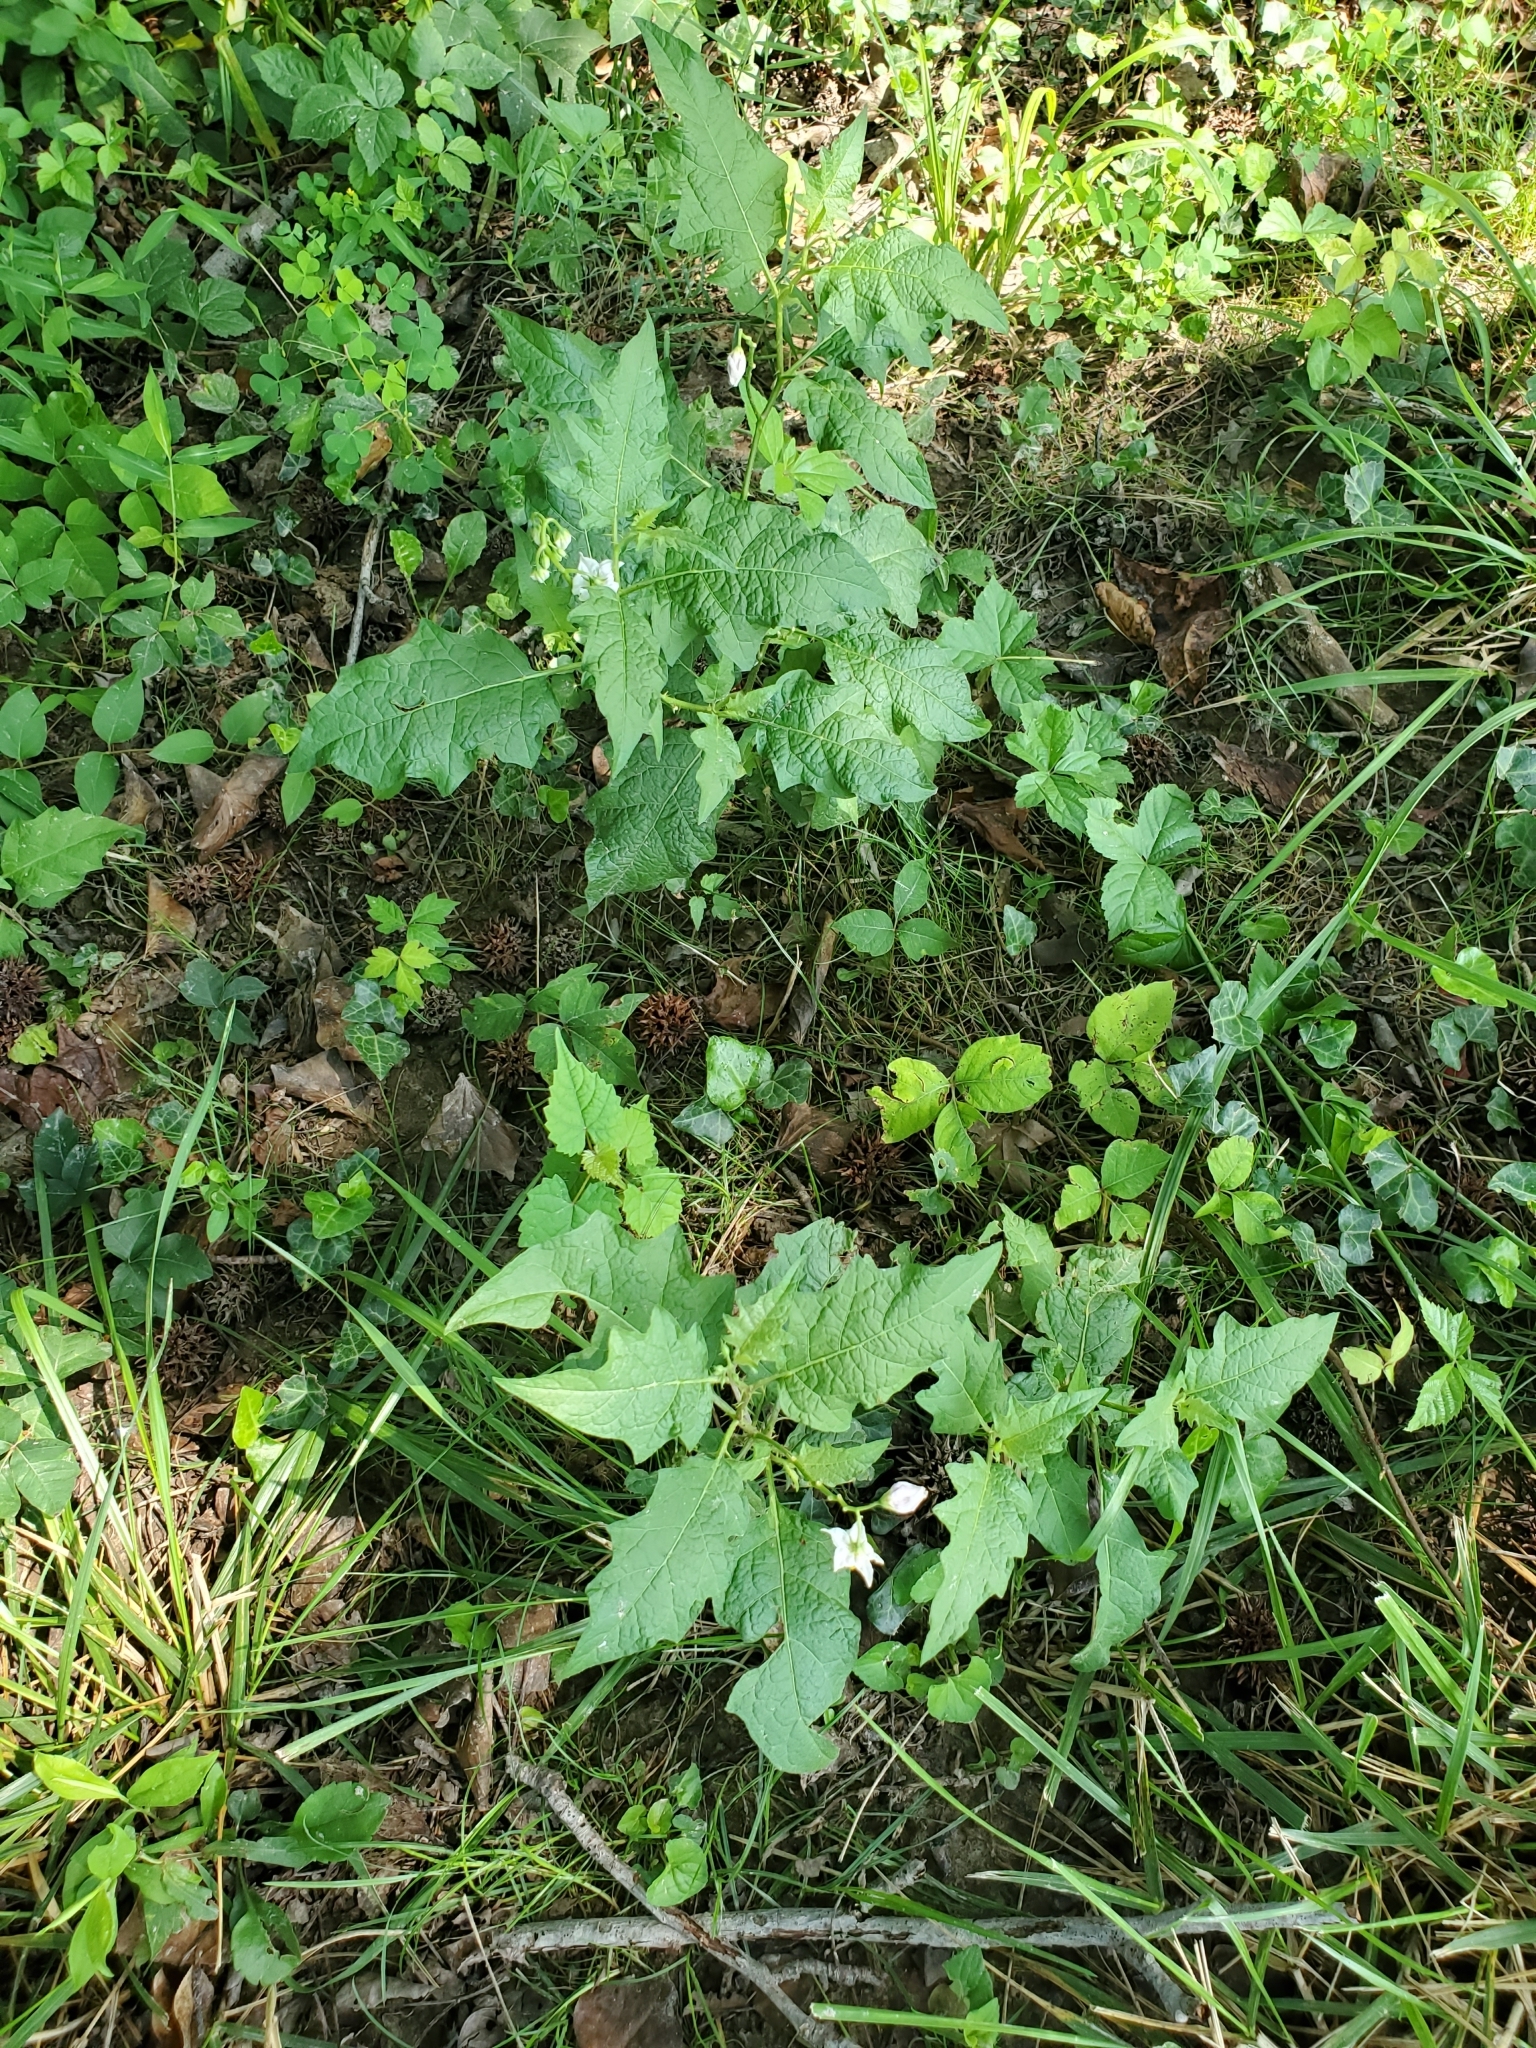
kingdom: Plantae
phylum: Tracheophyta
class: Magnoliopsida
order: Solanales
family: Solanaceae
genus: Solanum
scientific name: Solanum carolinense
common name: Horse-nettle
